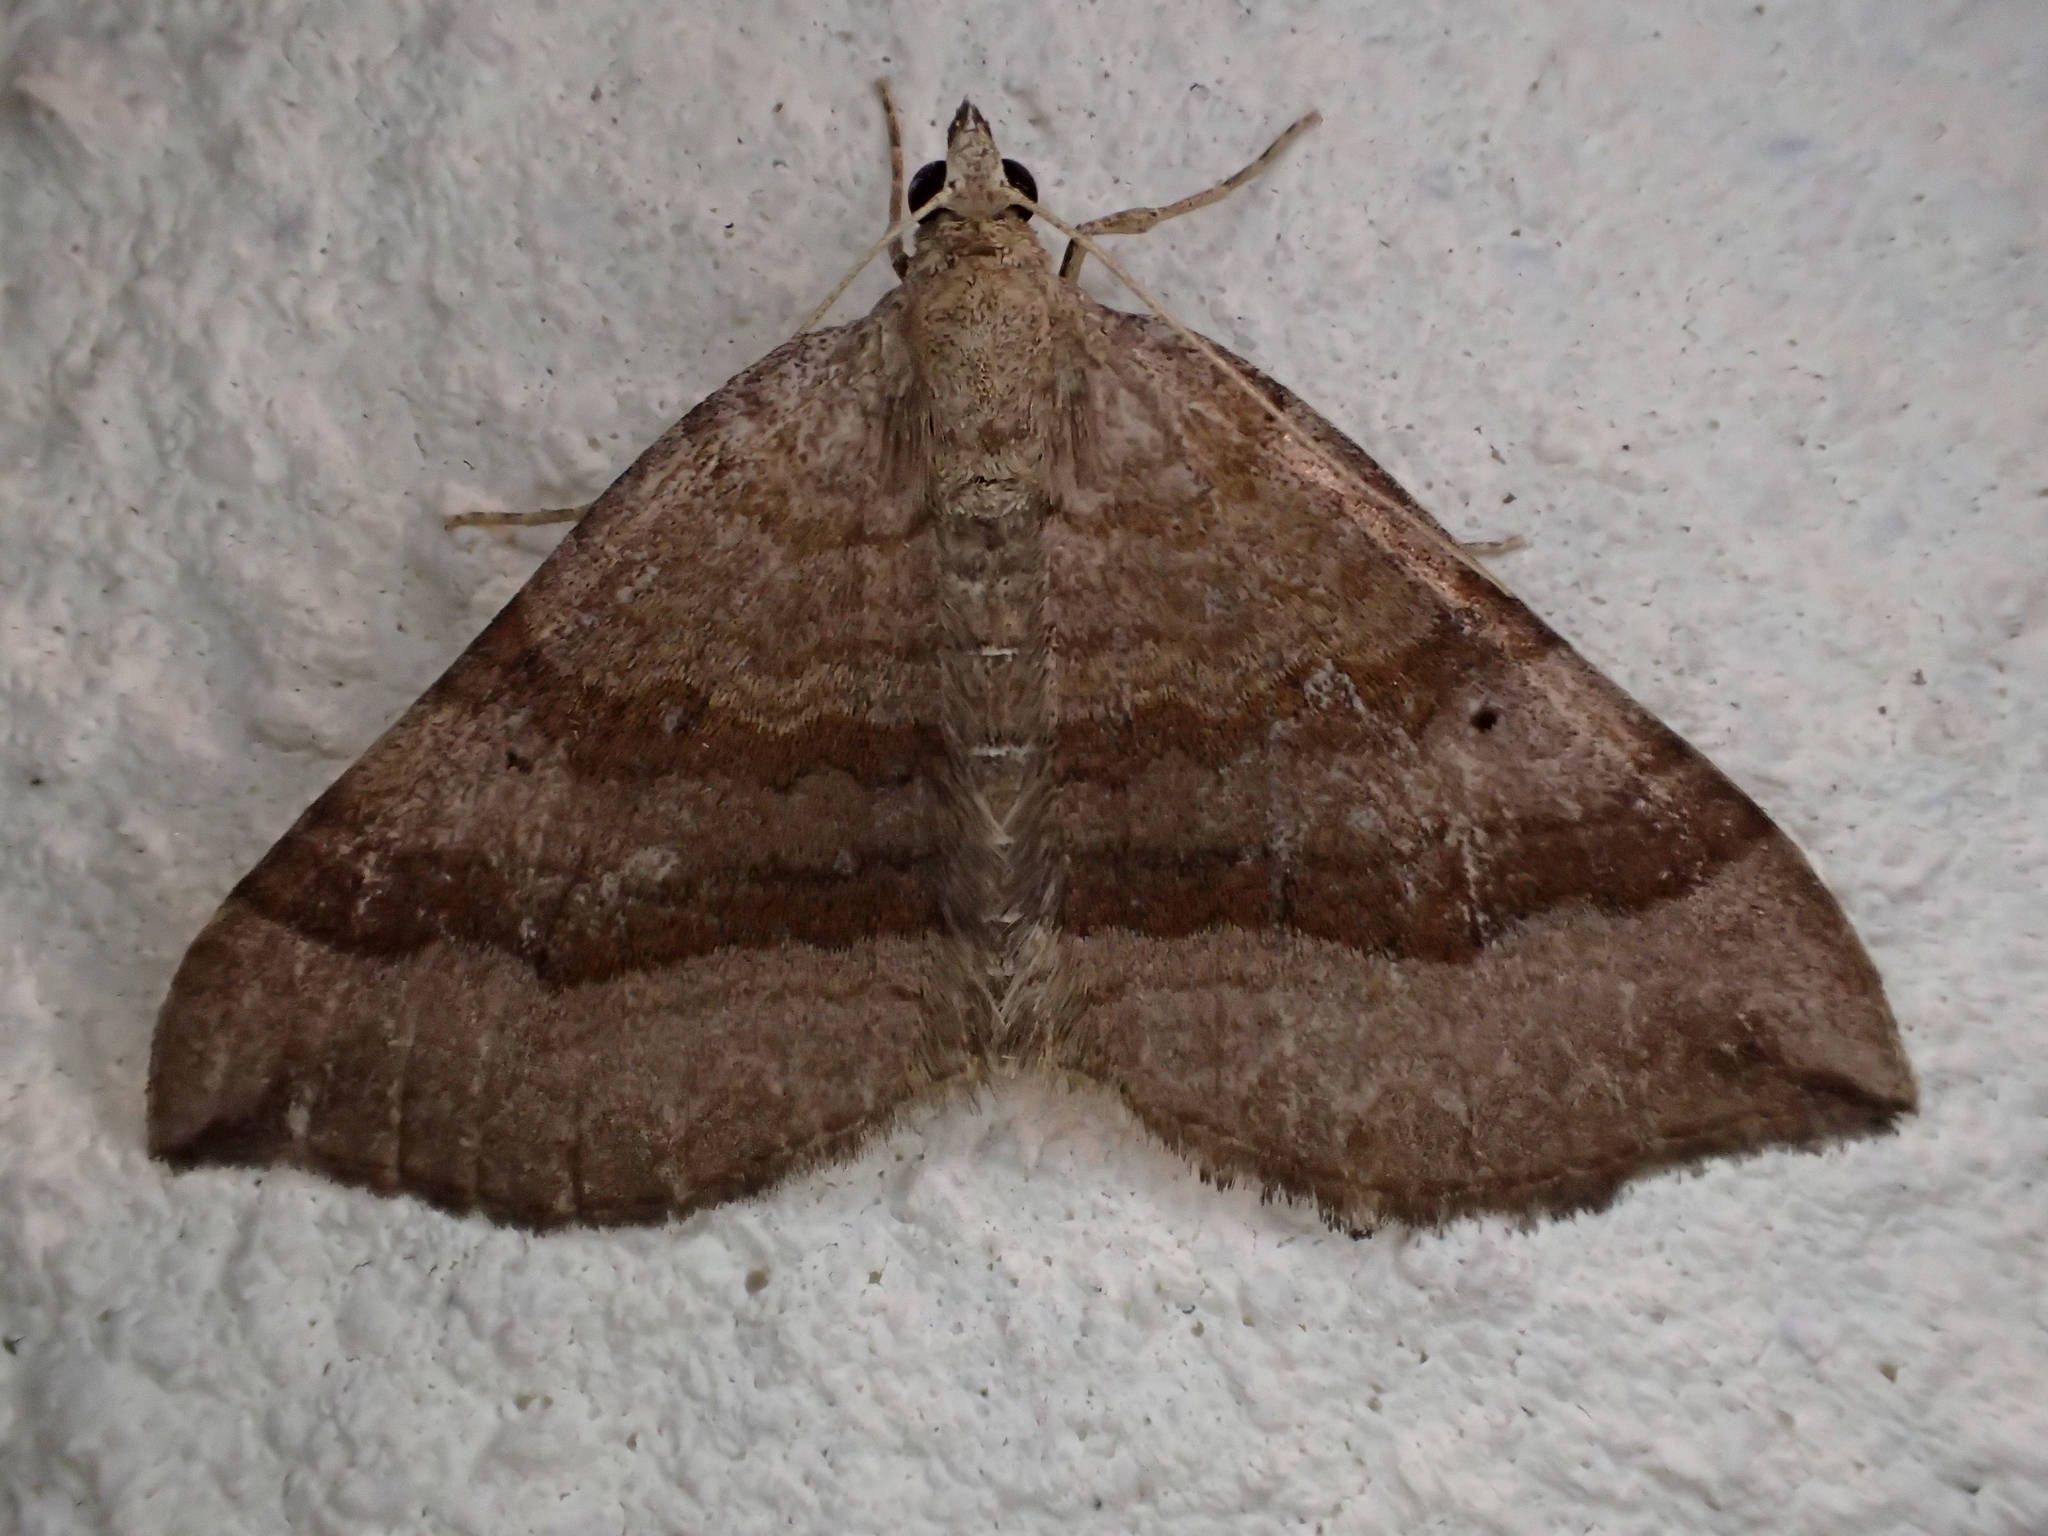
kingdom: Animalia
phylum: Arthropoda
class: Insecta
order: Lepidoptera
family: Geometridae
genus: Scotopteryx
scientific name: Scotopteryx chenopodiata
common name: Shaded broad-bar
